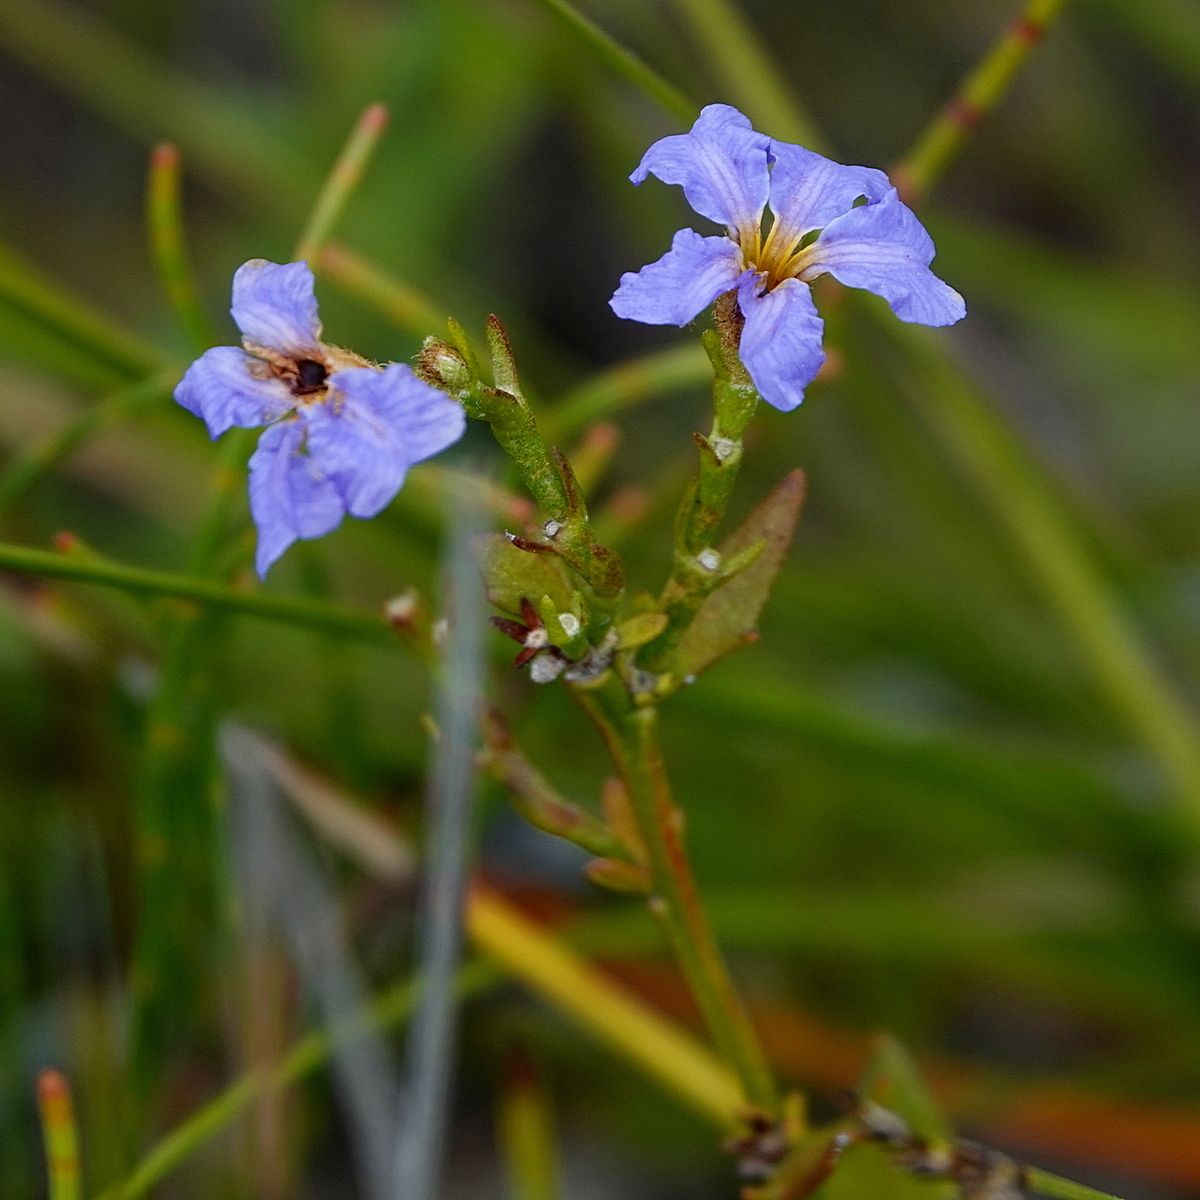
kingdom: Plantae
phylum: Tracheophyta
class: Magnoliopsida
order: Asterales
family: Goodeniaceae
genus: Dampiera
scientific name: Dampiera stricta
